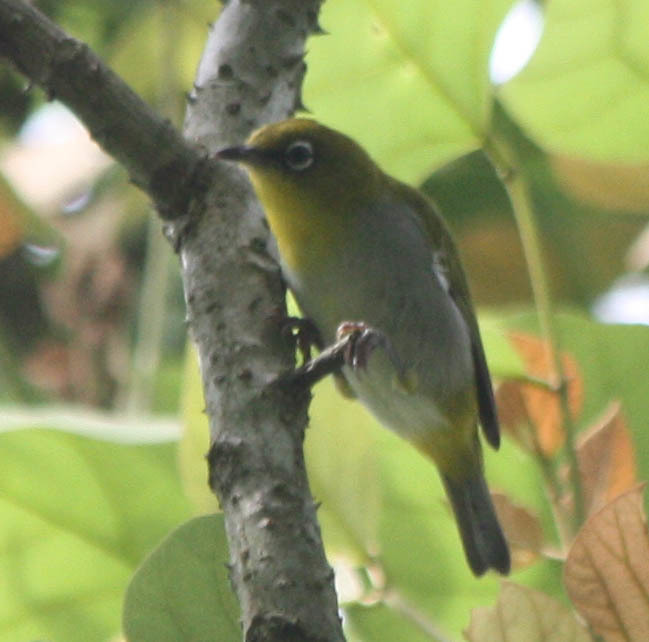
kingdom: Animalia
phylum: Chordata
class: Aves
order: Passeriformes
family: Zosteropidae
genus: Zosterops
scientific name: Zosterops simplex
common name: Swinhoe's white-eye
